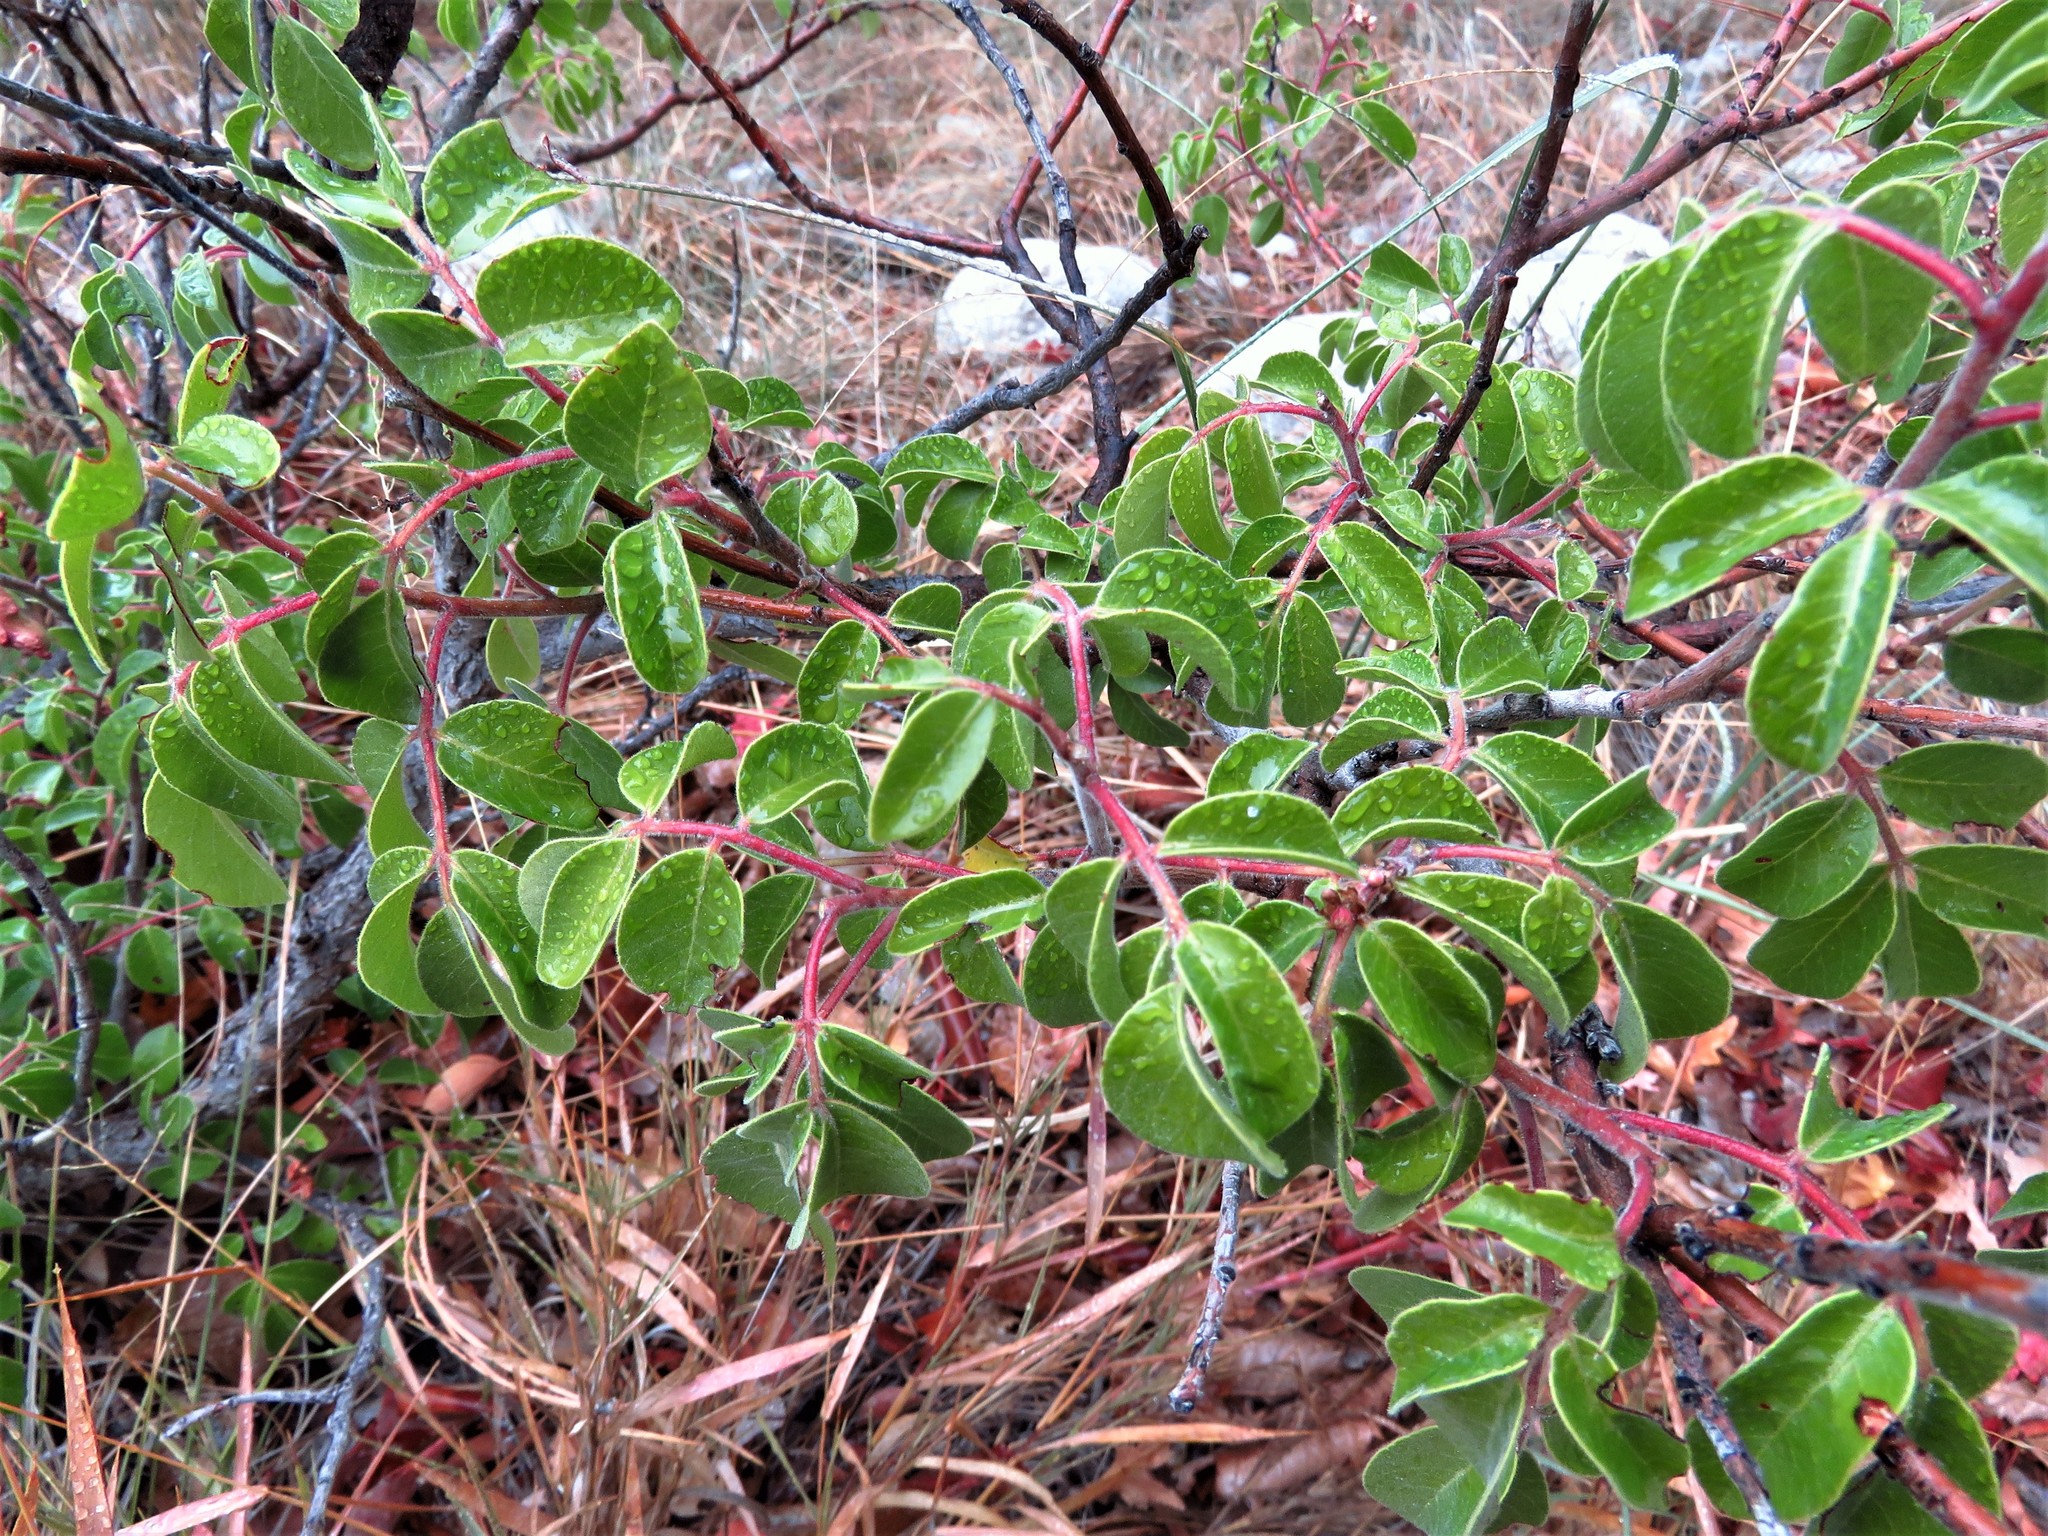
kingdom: Plantae
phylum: Tracheophyta
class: Magnoliopsida
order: Sapindales
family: Anacardiaceae
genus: Rhus
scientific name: Rhus virens
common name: Evergreen sumac
